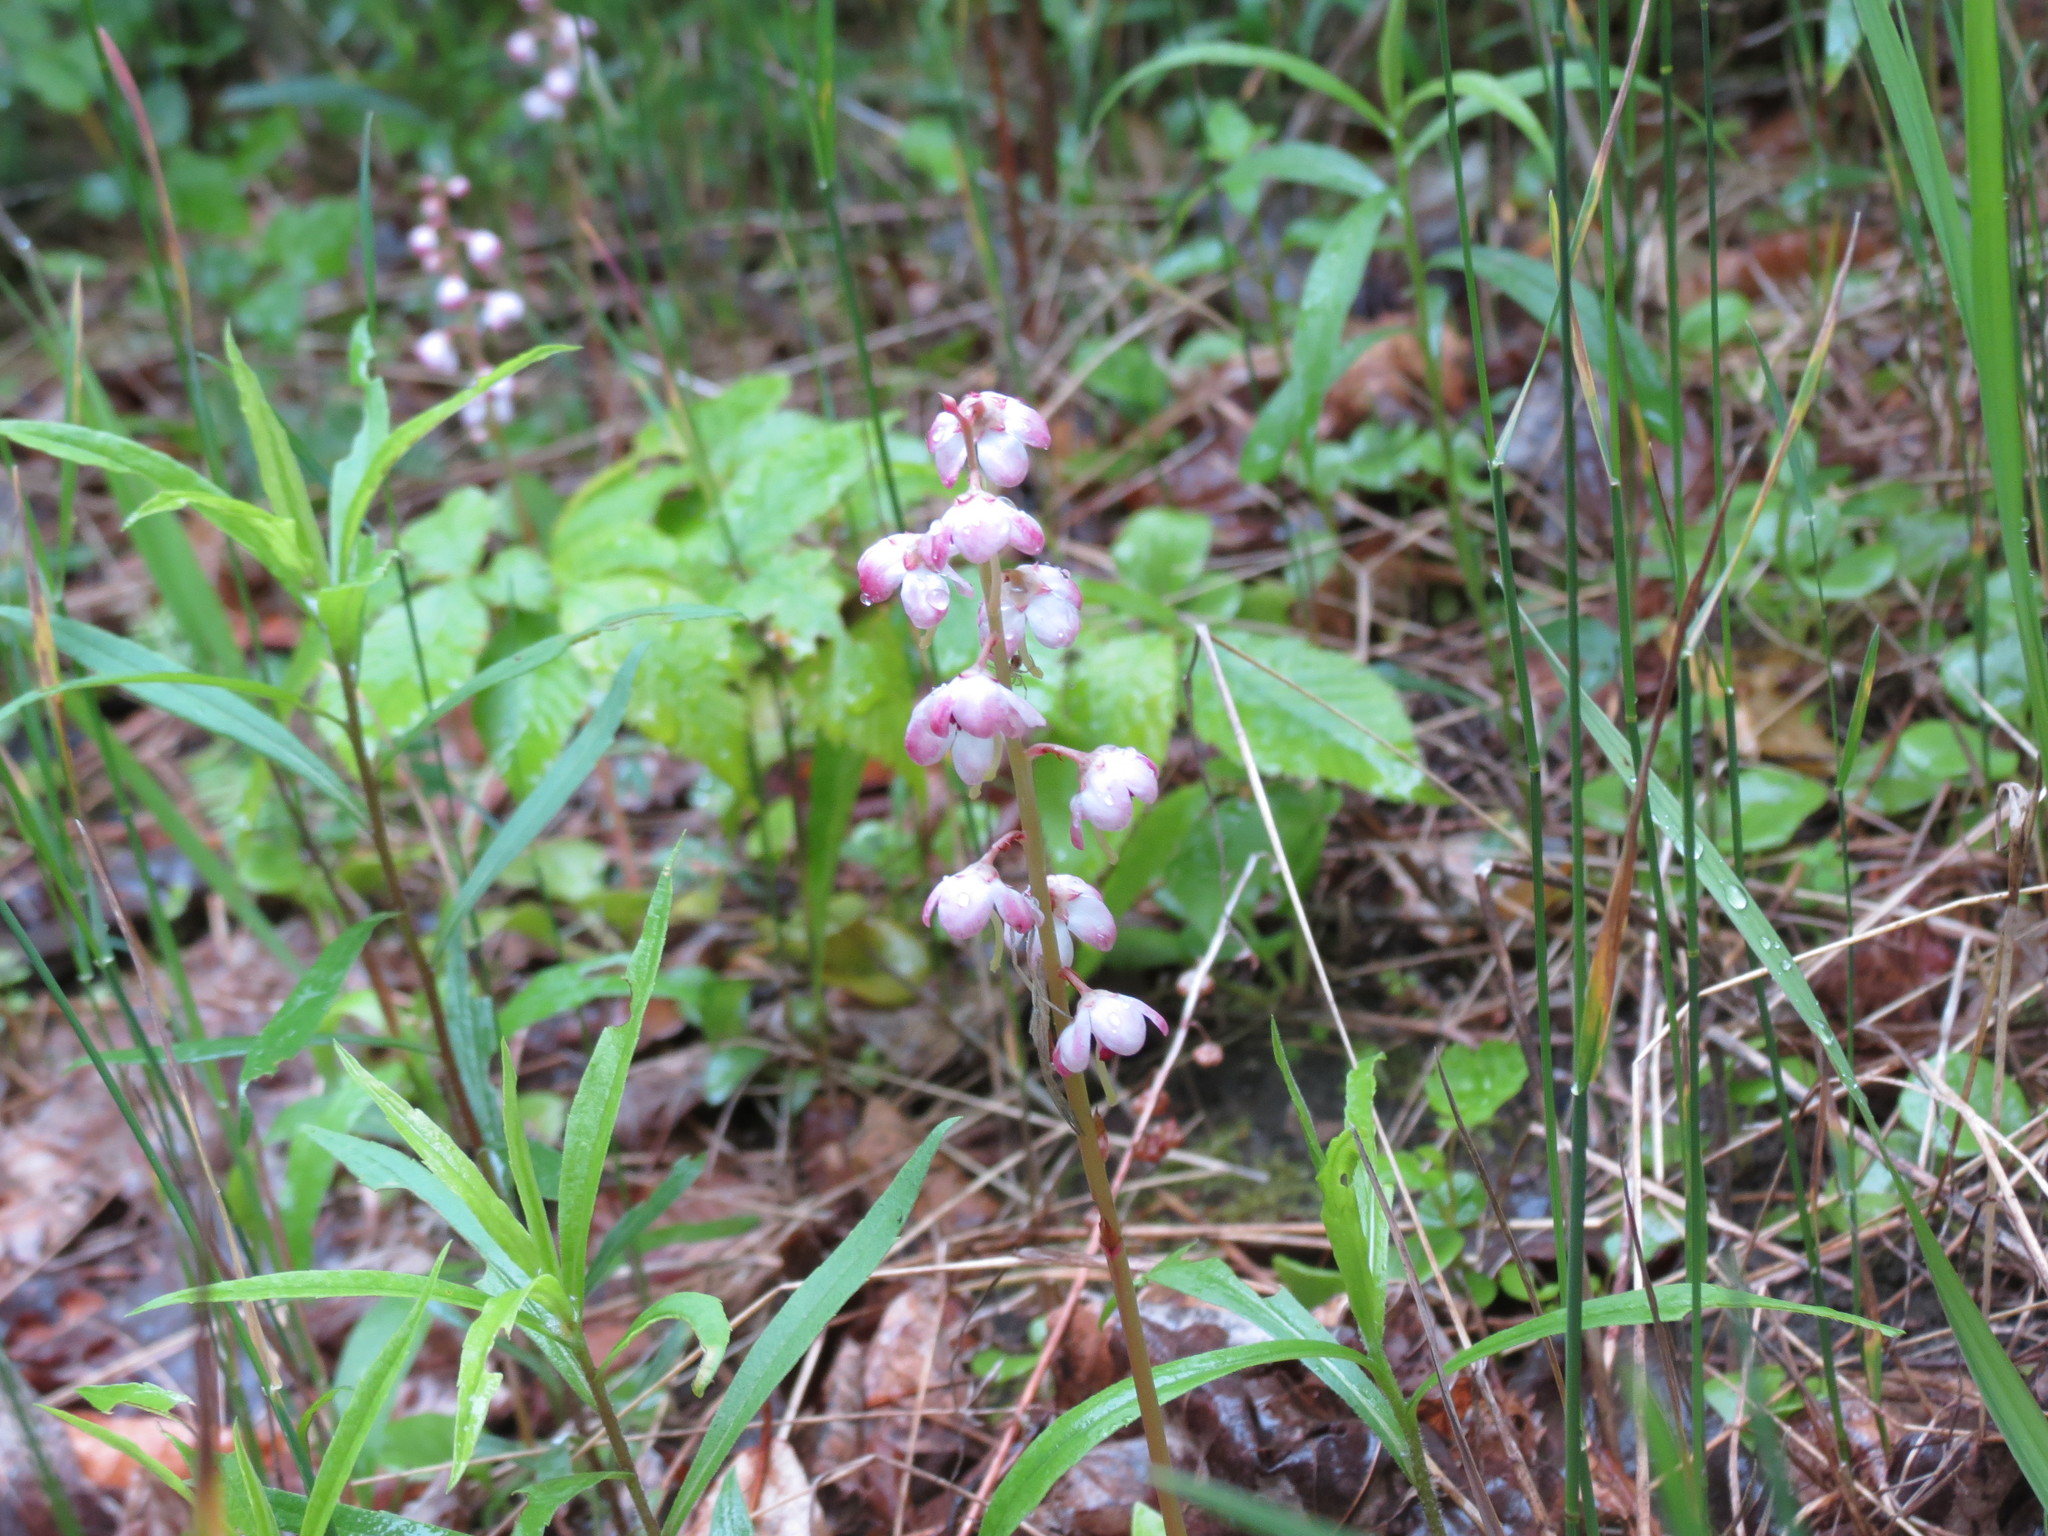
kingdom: Plantae
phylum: Tracheophyta
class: Magnoliopsida
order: Ericales
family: Ericaceae
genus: Pyrola
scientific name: Pyrola asarifolia
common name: Bog wintergreen
